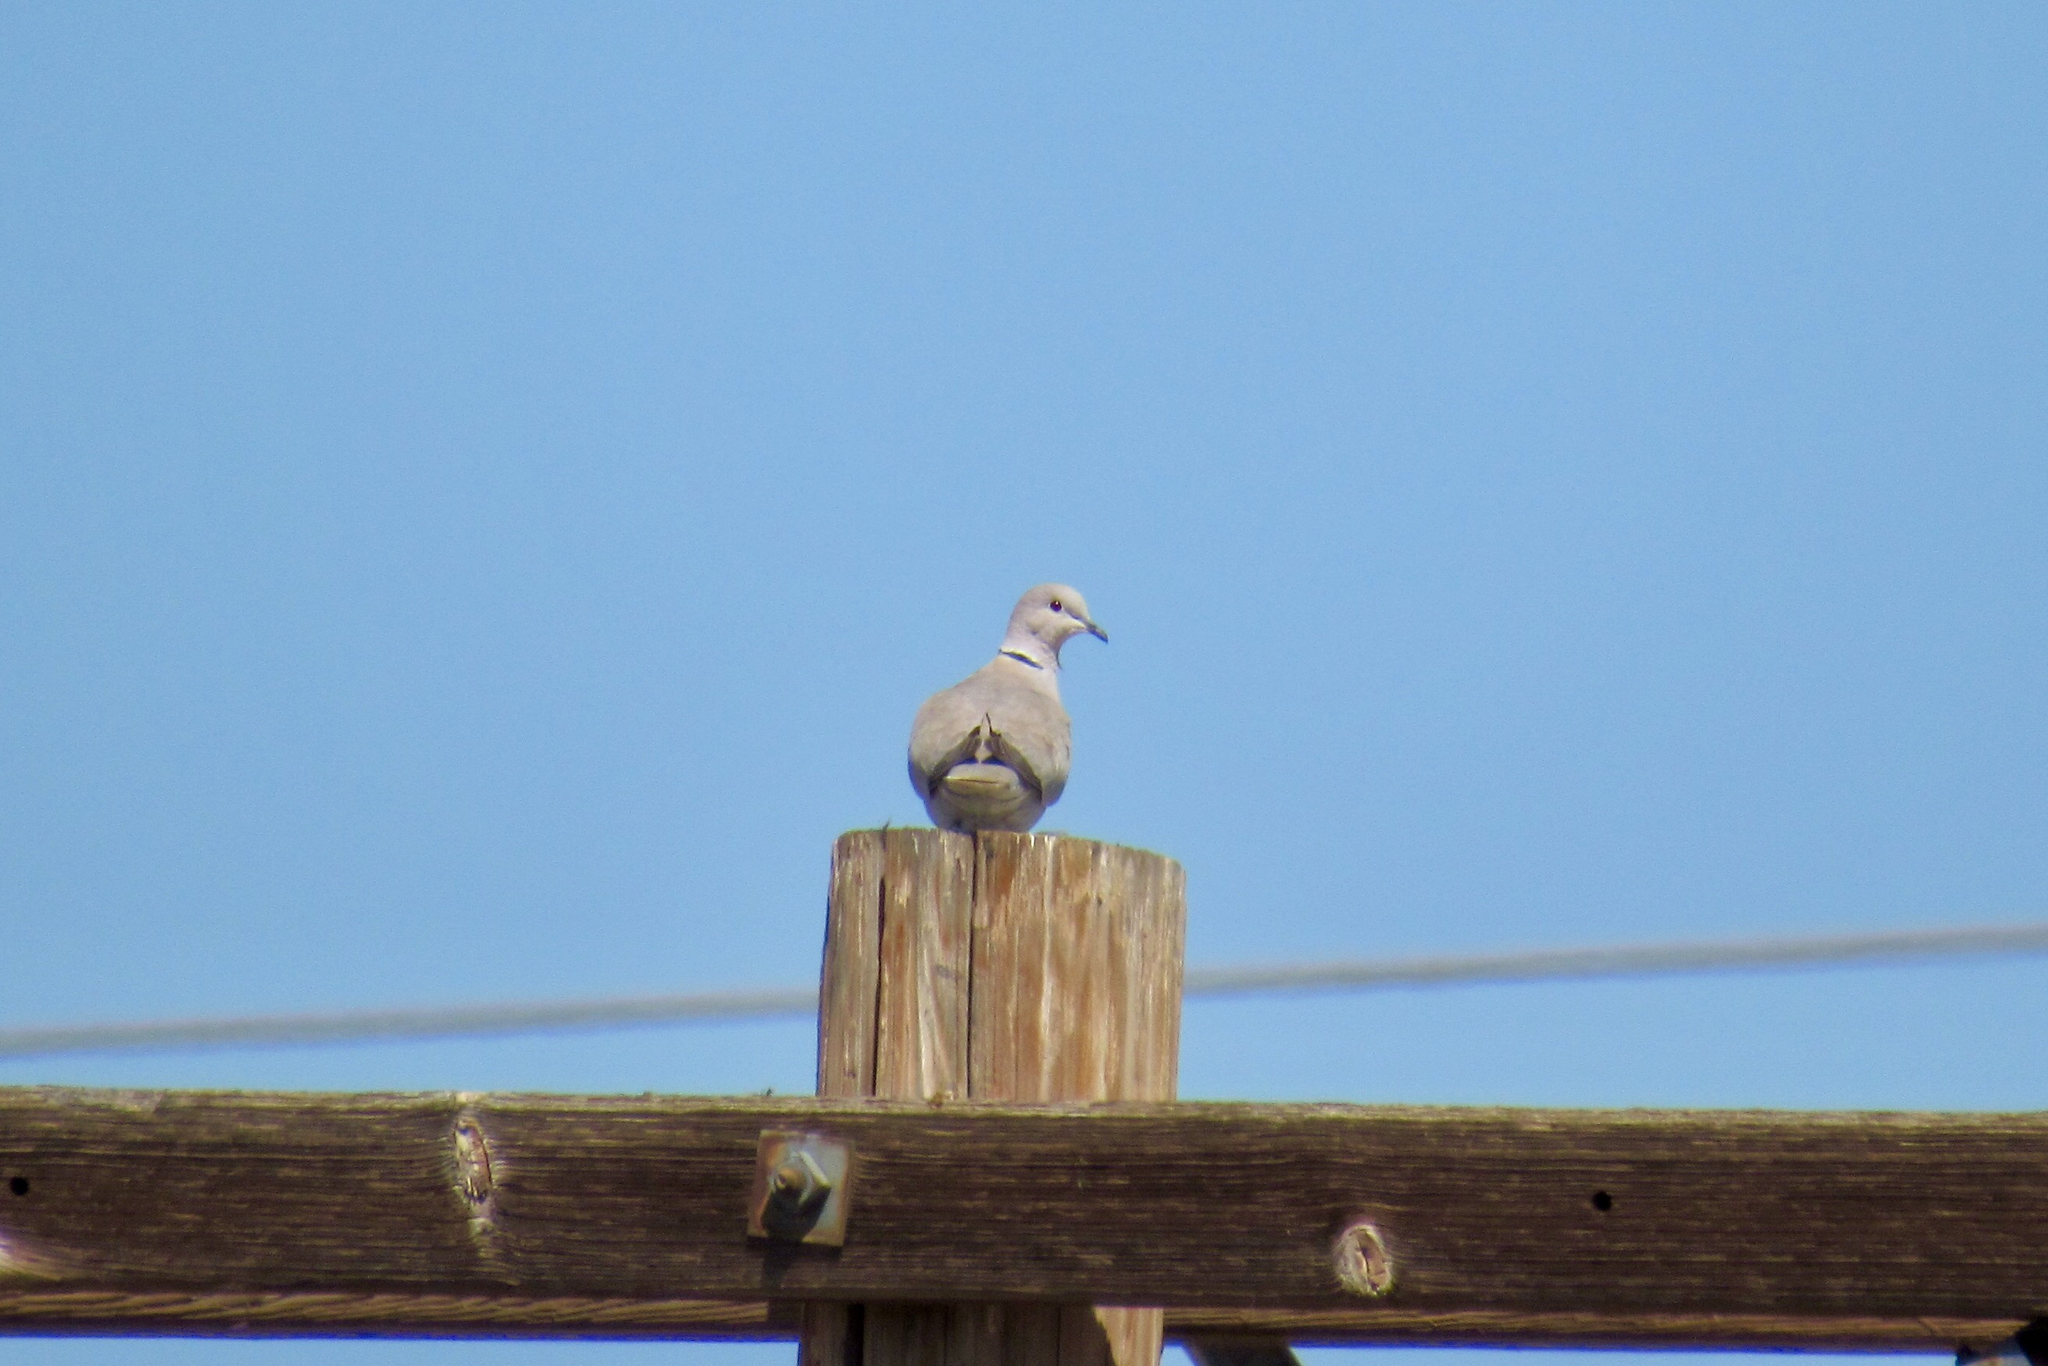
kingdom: Animalia
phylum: Chordata
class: Aves
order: Columbiformes
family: Columbidae
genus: Streptopelia
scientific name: Streptopelia decaocto
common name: Eurasian collared dove
